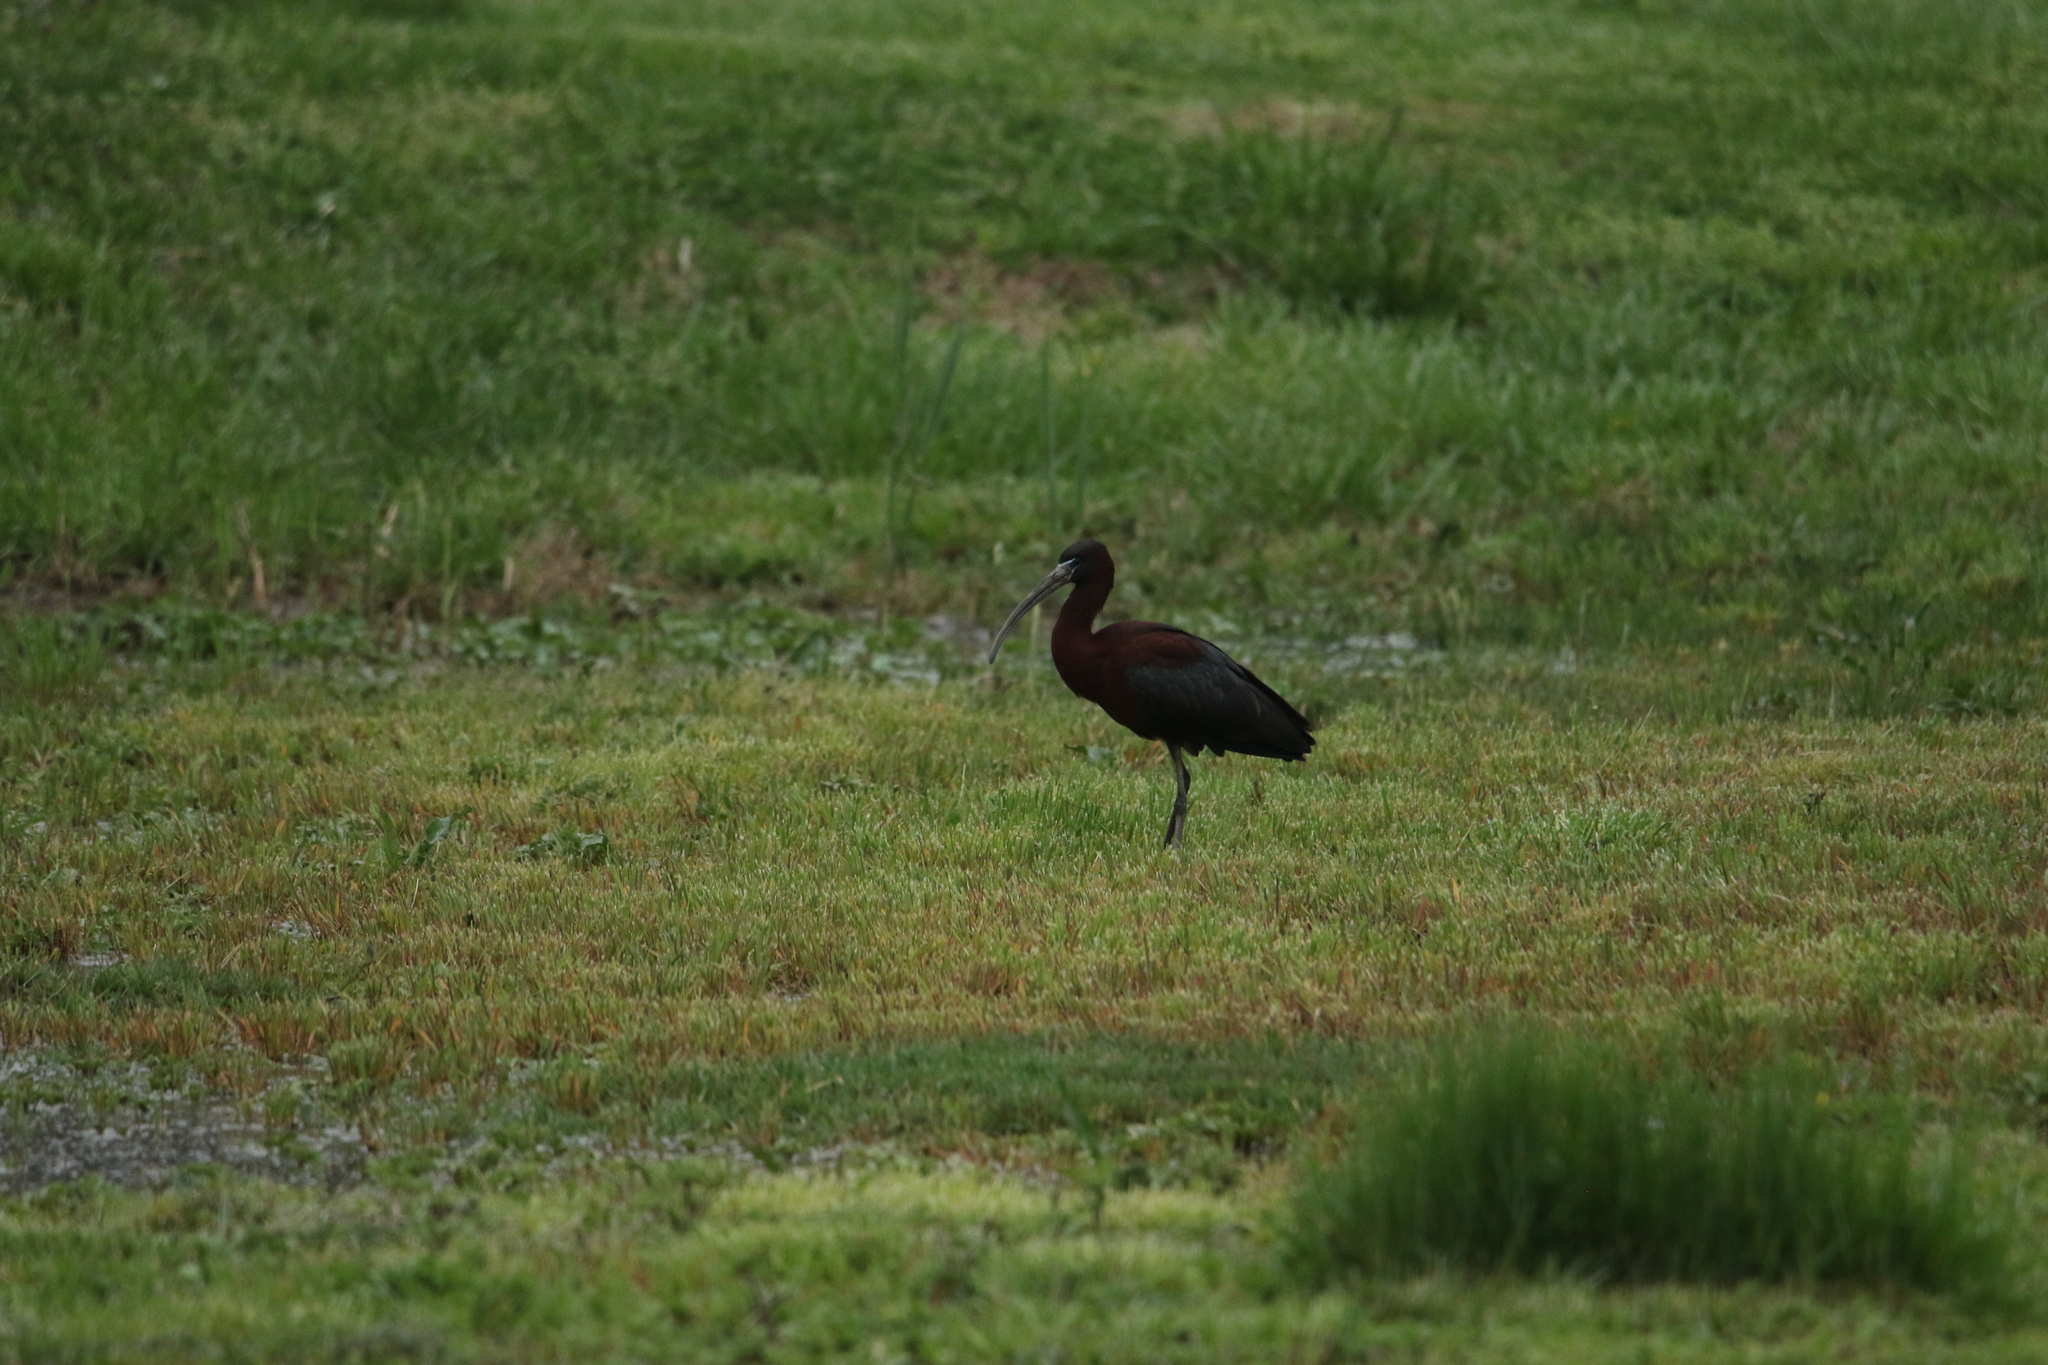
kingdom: Animalia
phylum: Chordata
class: Aves
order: Pelecaniformes
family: Threskiornithidae
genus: Plegadis
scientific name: Plegadis falcinellus
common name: Glossy ibis
